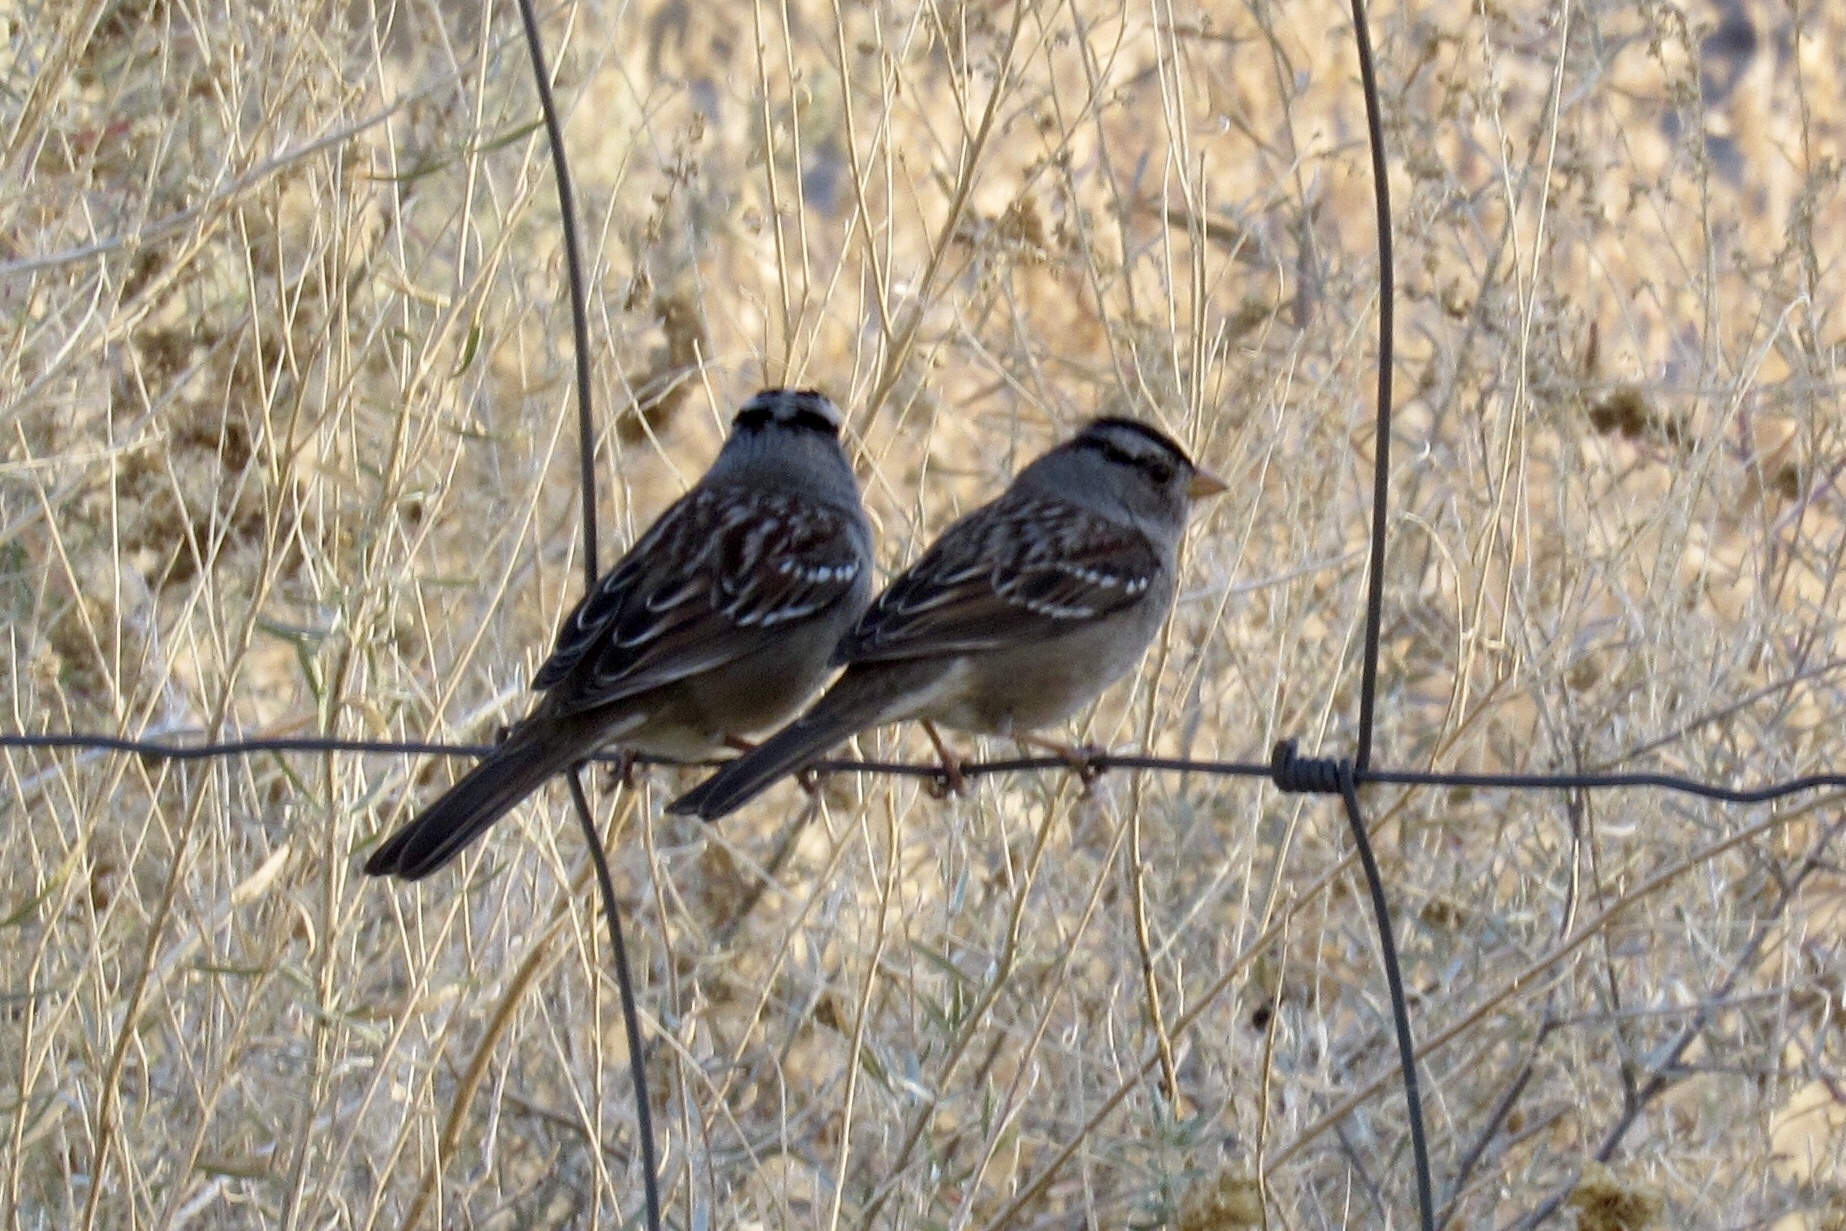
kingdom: Animalia
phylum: Chordata
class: Aves
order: Passeriformes
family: Passerellidae
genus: Zonotrichia
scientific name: Zonotrichia leucophrys
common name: White-crowned sparrow
